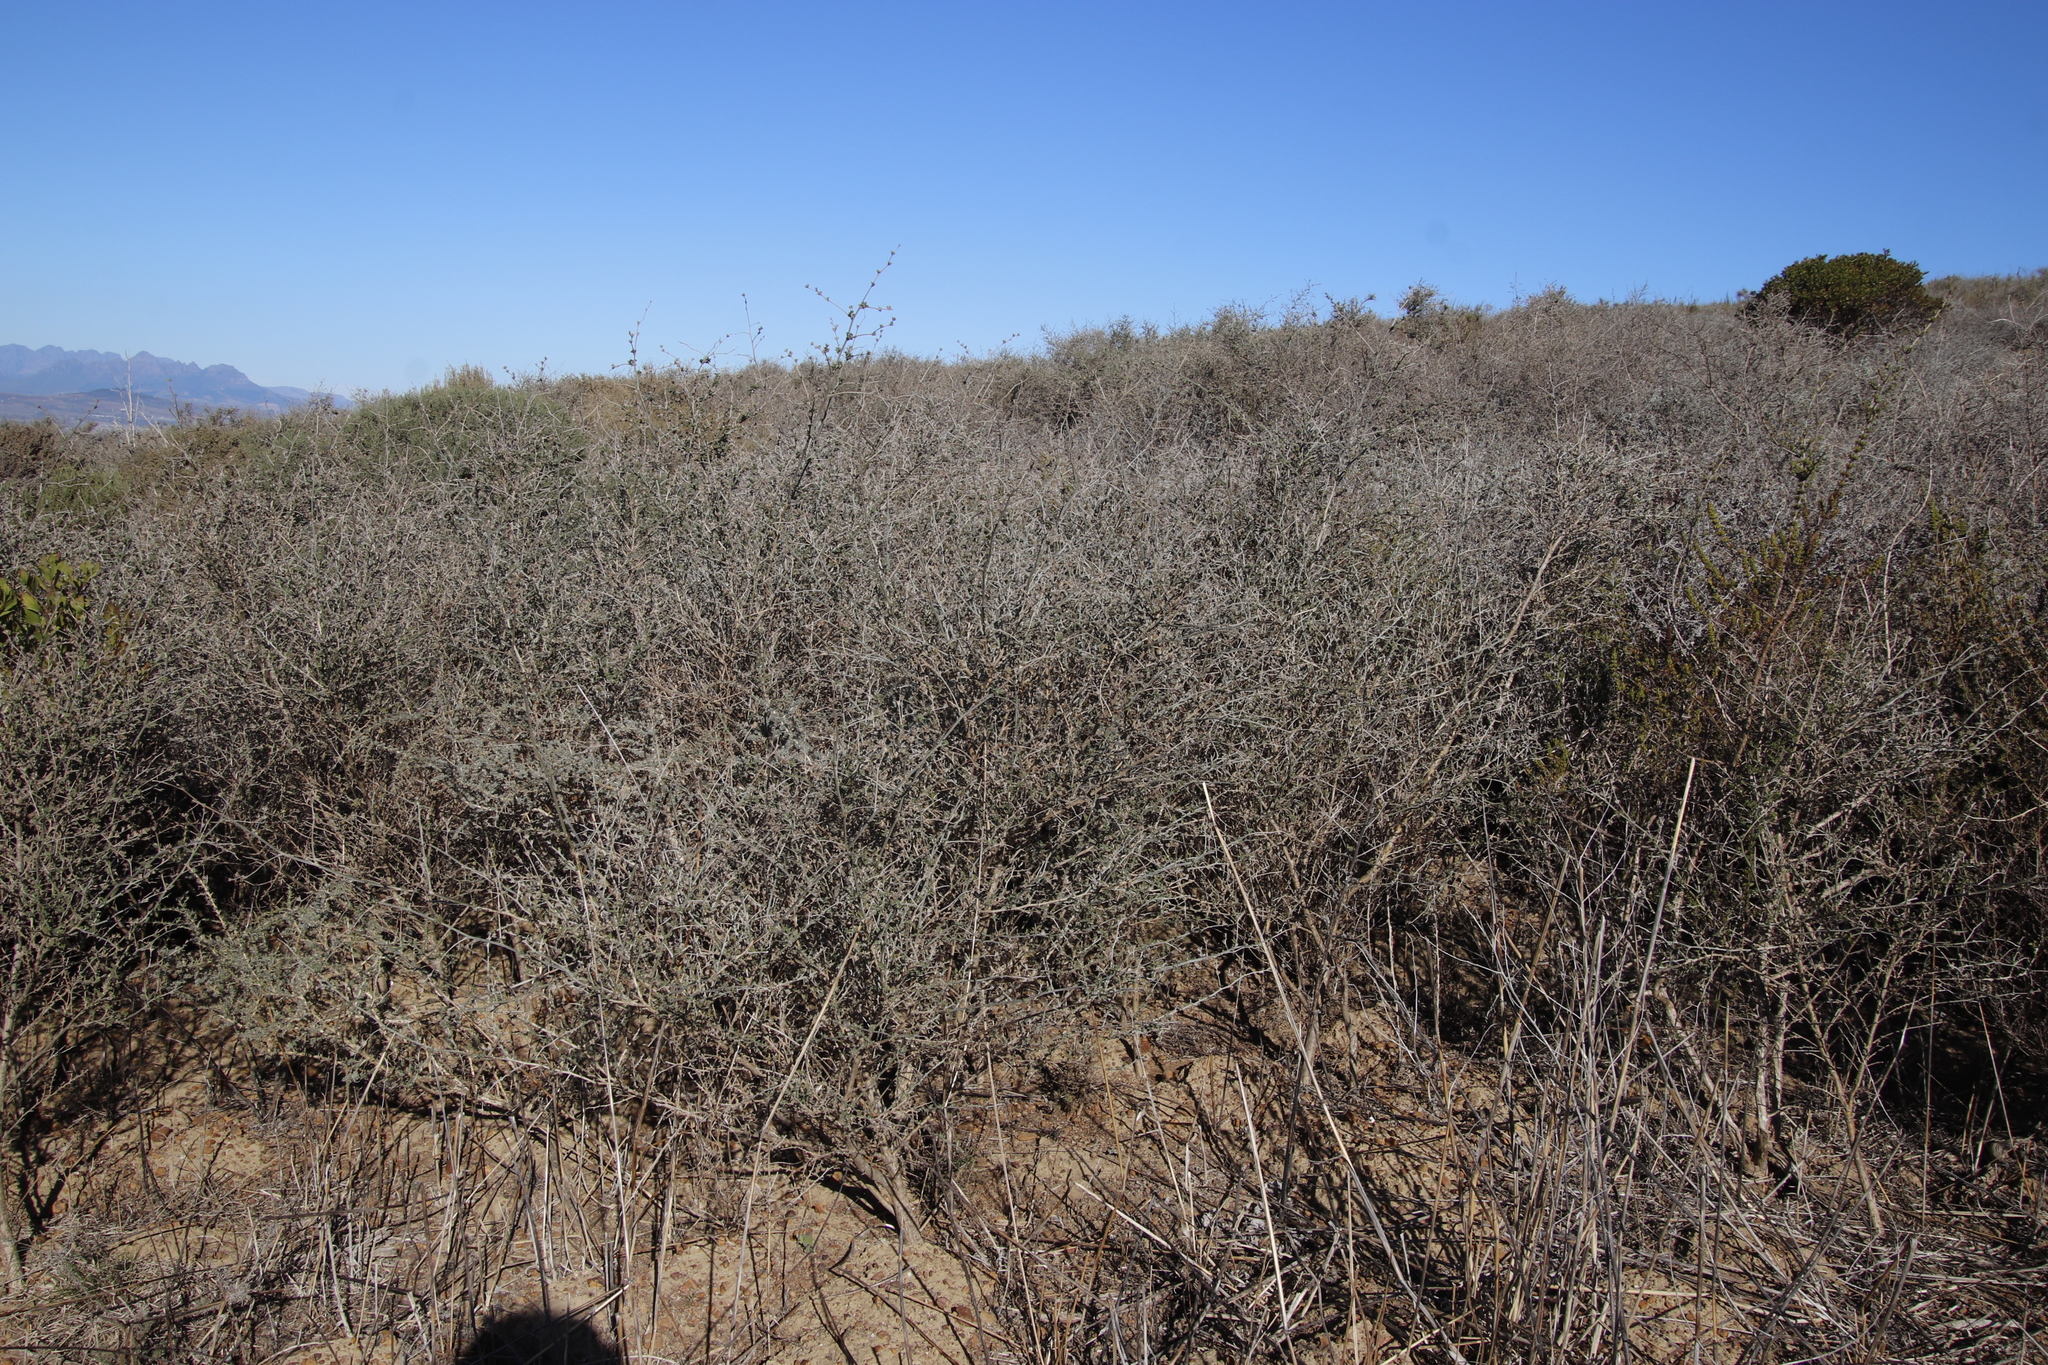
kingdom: Plantae
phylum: Tracheophyta
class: Magnoliopsida
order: Fabales
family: Fabaceae
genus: Psoralea
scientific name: Psoralea hirta
